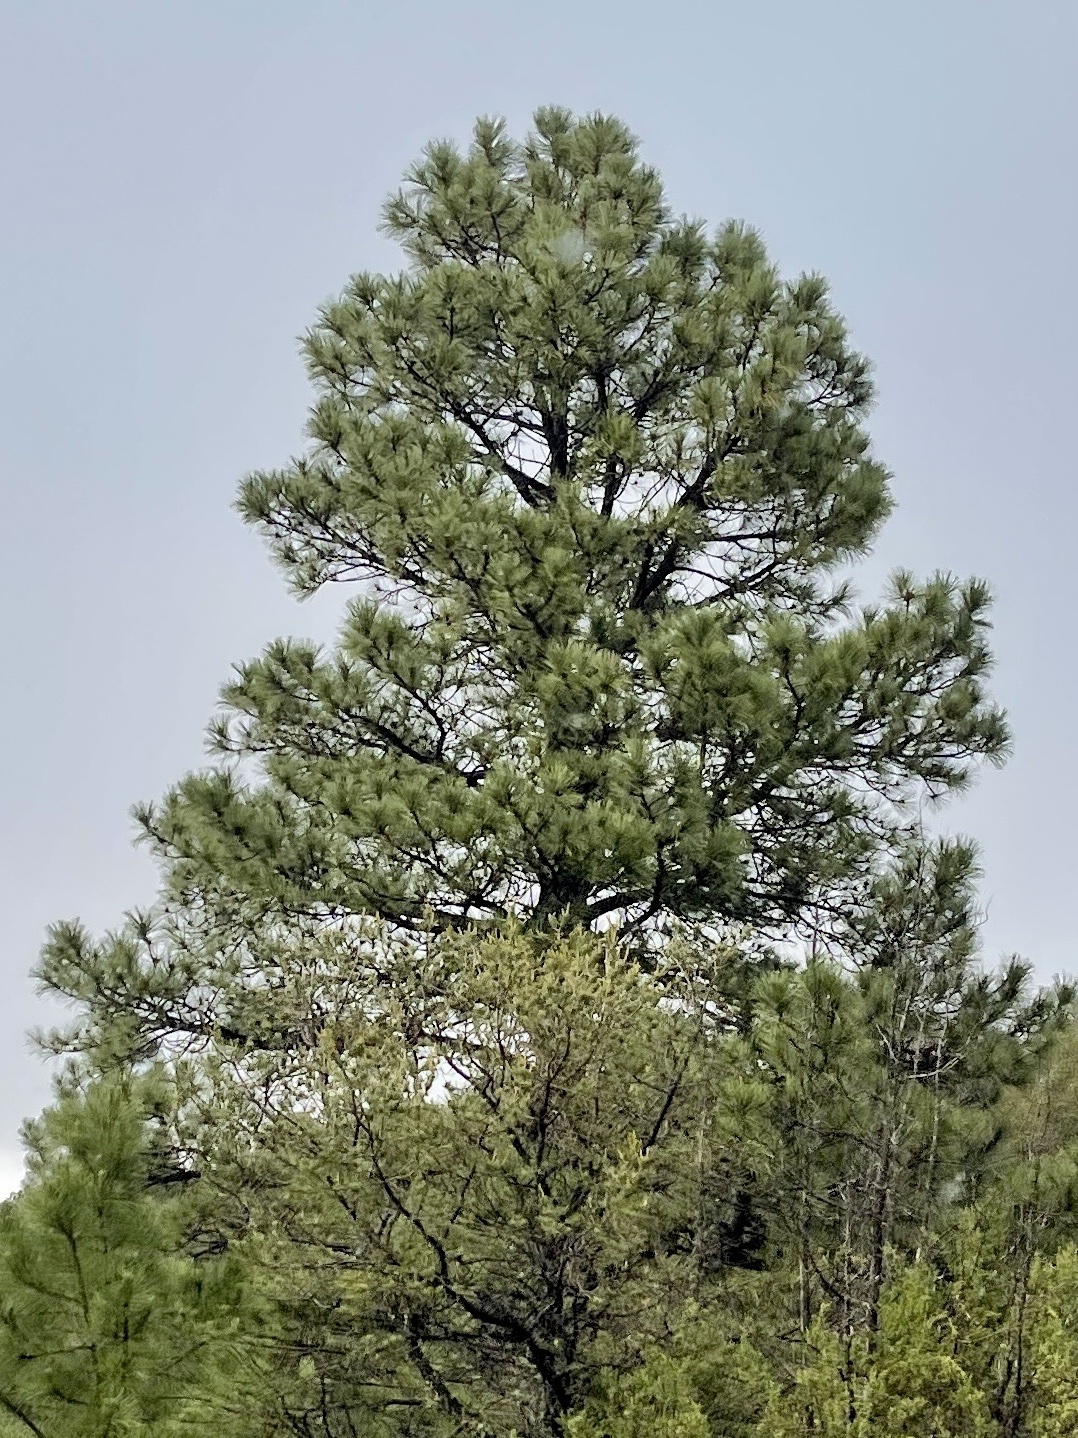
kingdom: Plantae
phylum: Tracheophyta
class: Pinopsida
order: Pinales
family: Pinaceae
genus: Pinus
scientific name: Pinus ponderosa
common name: Western yellow-pine
